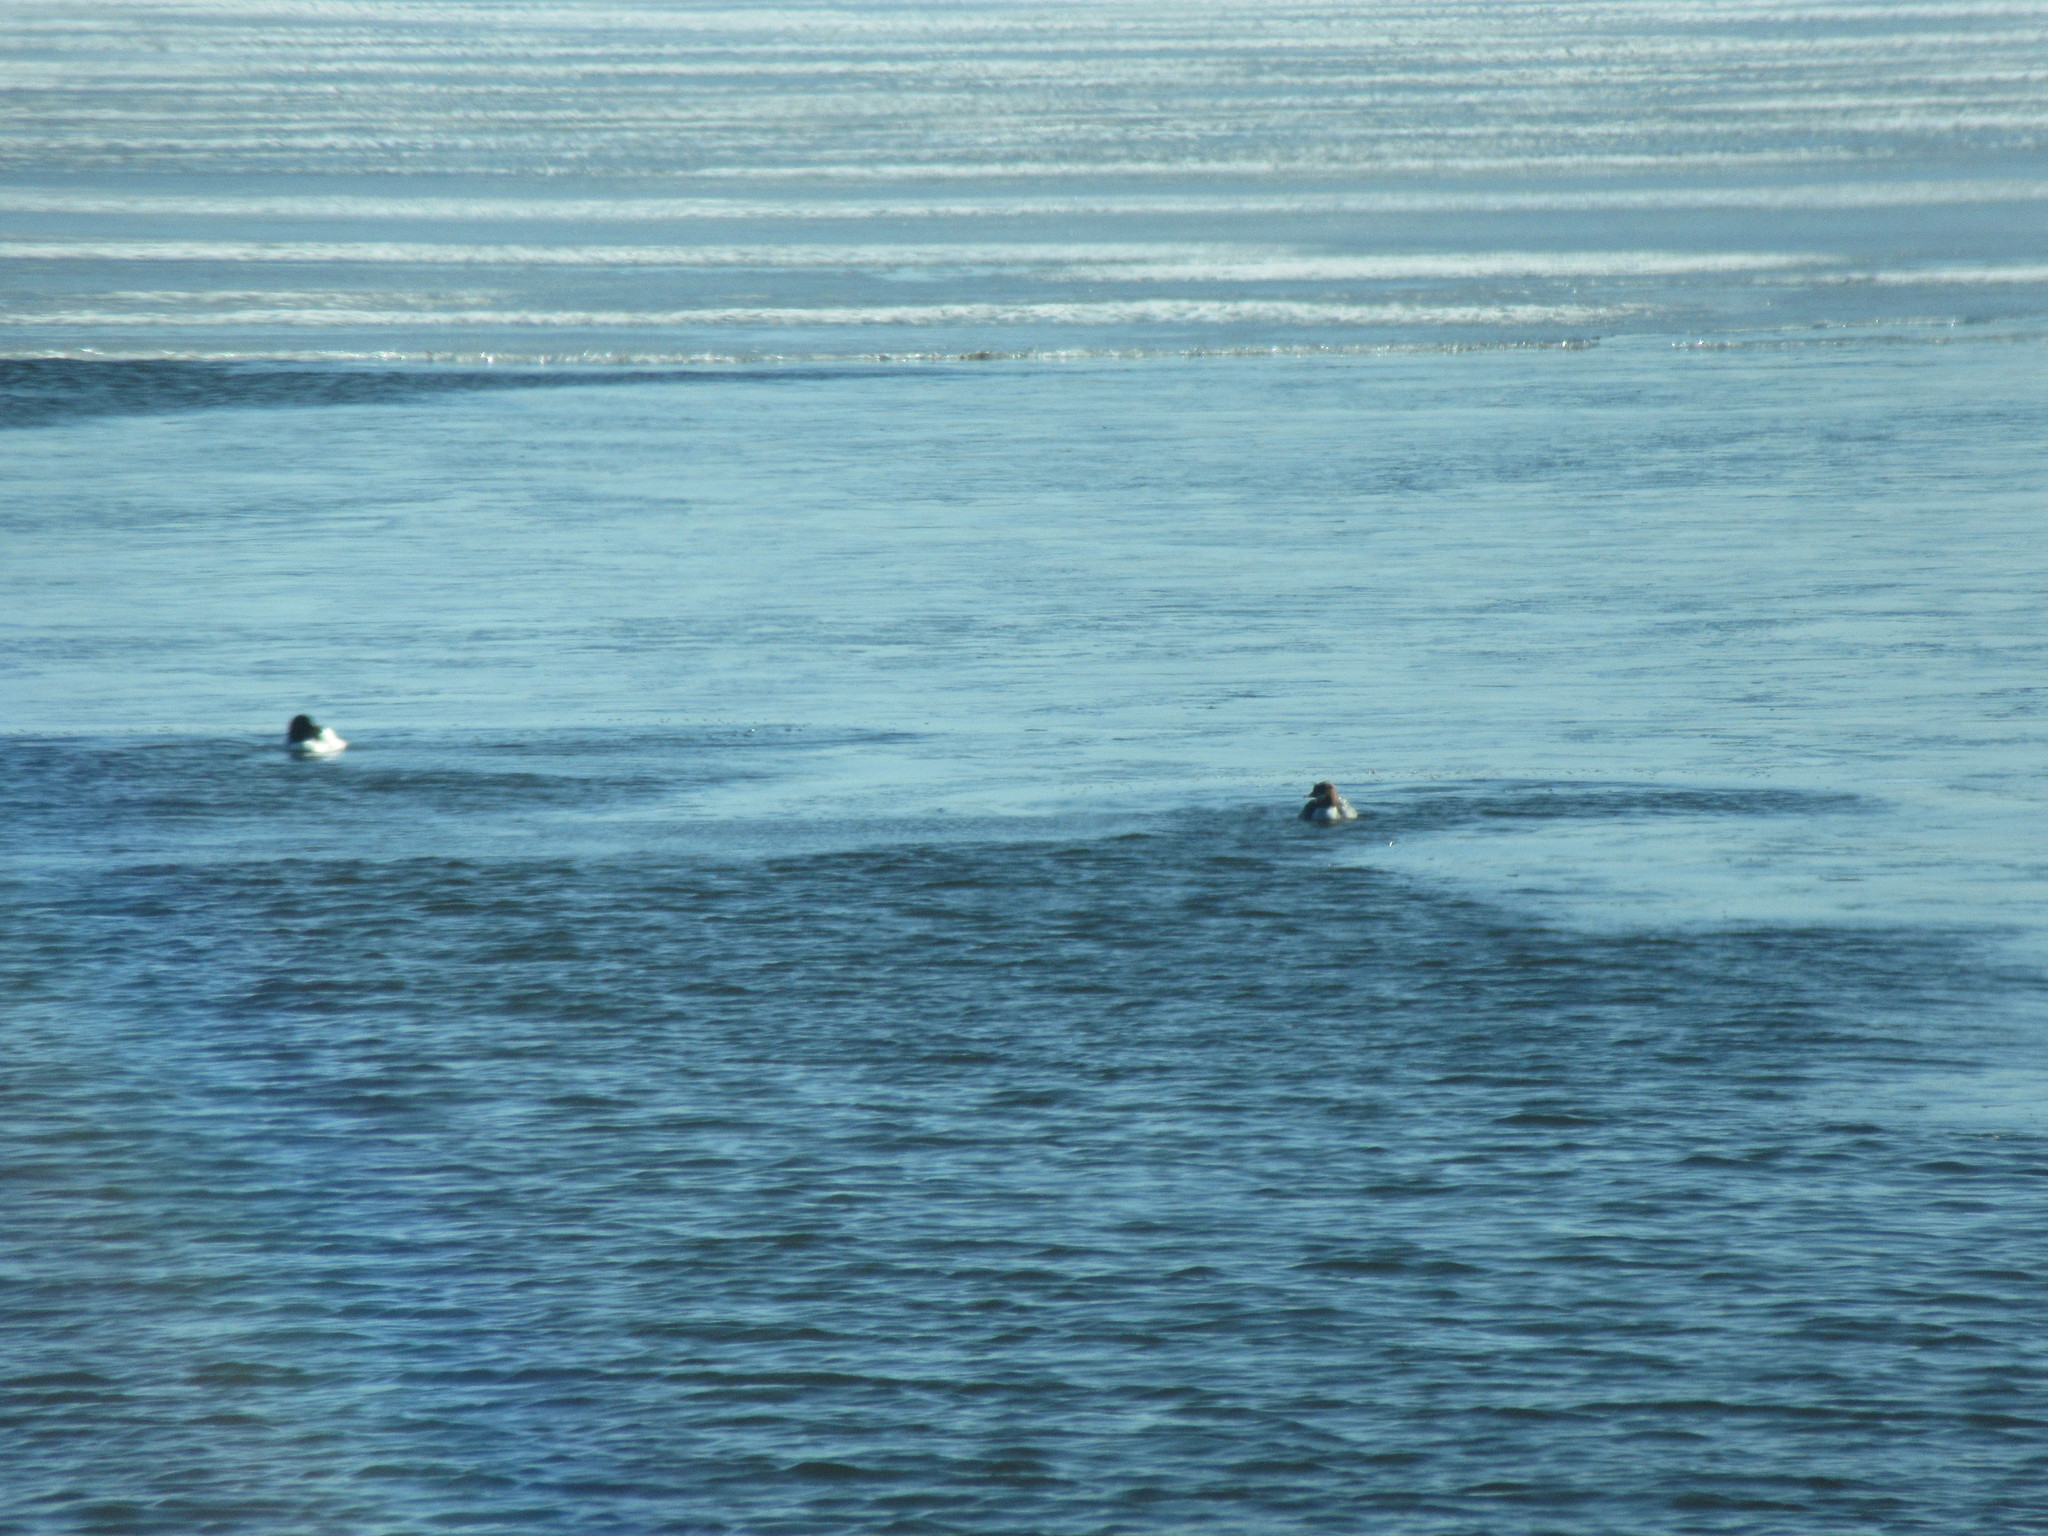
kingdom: Animalia
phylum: Chordata
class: Aves
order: Anseriformes
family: Anatidae
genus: Mergus
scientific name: Mergus merganser
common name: Common merganser
